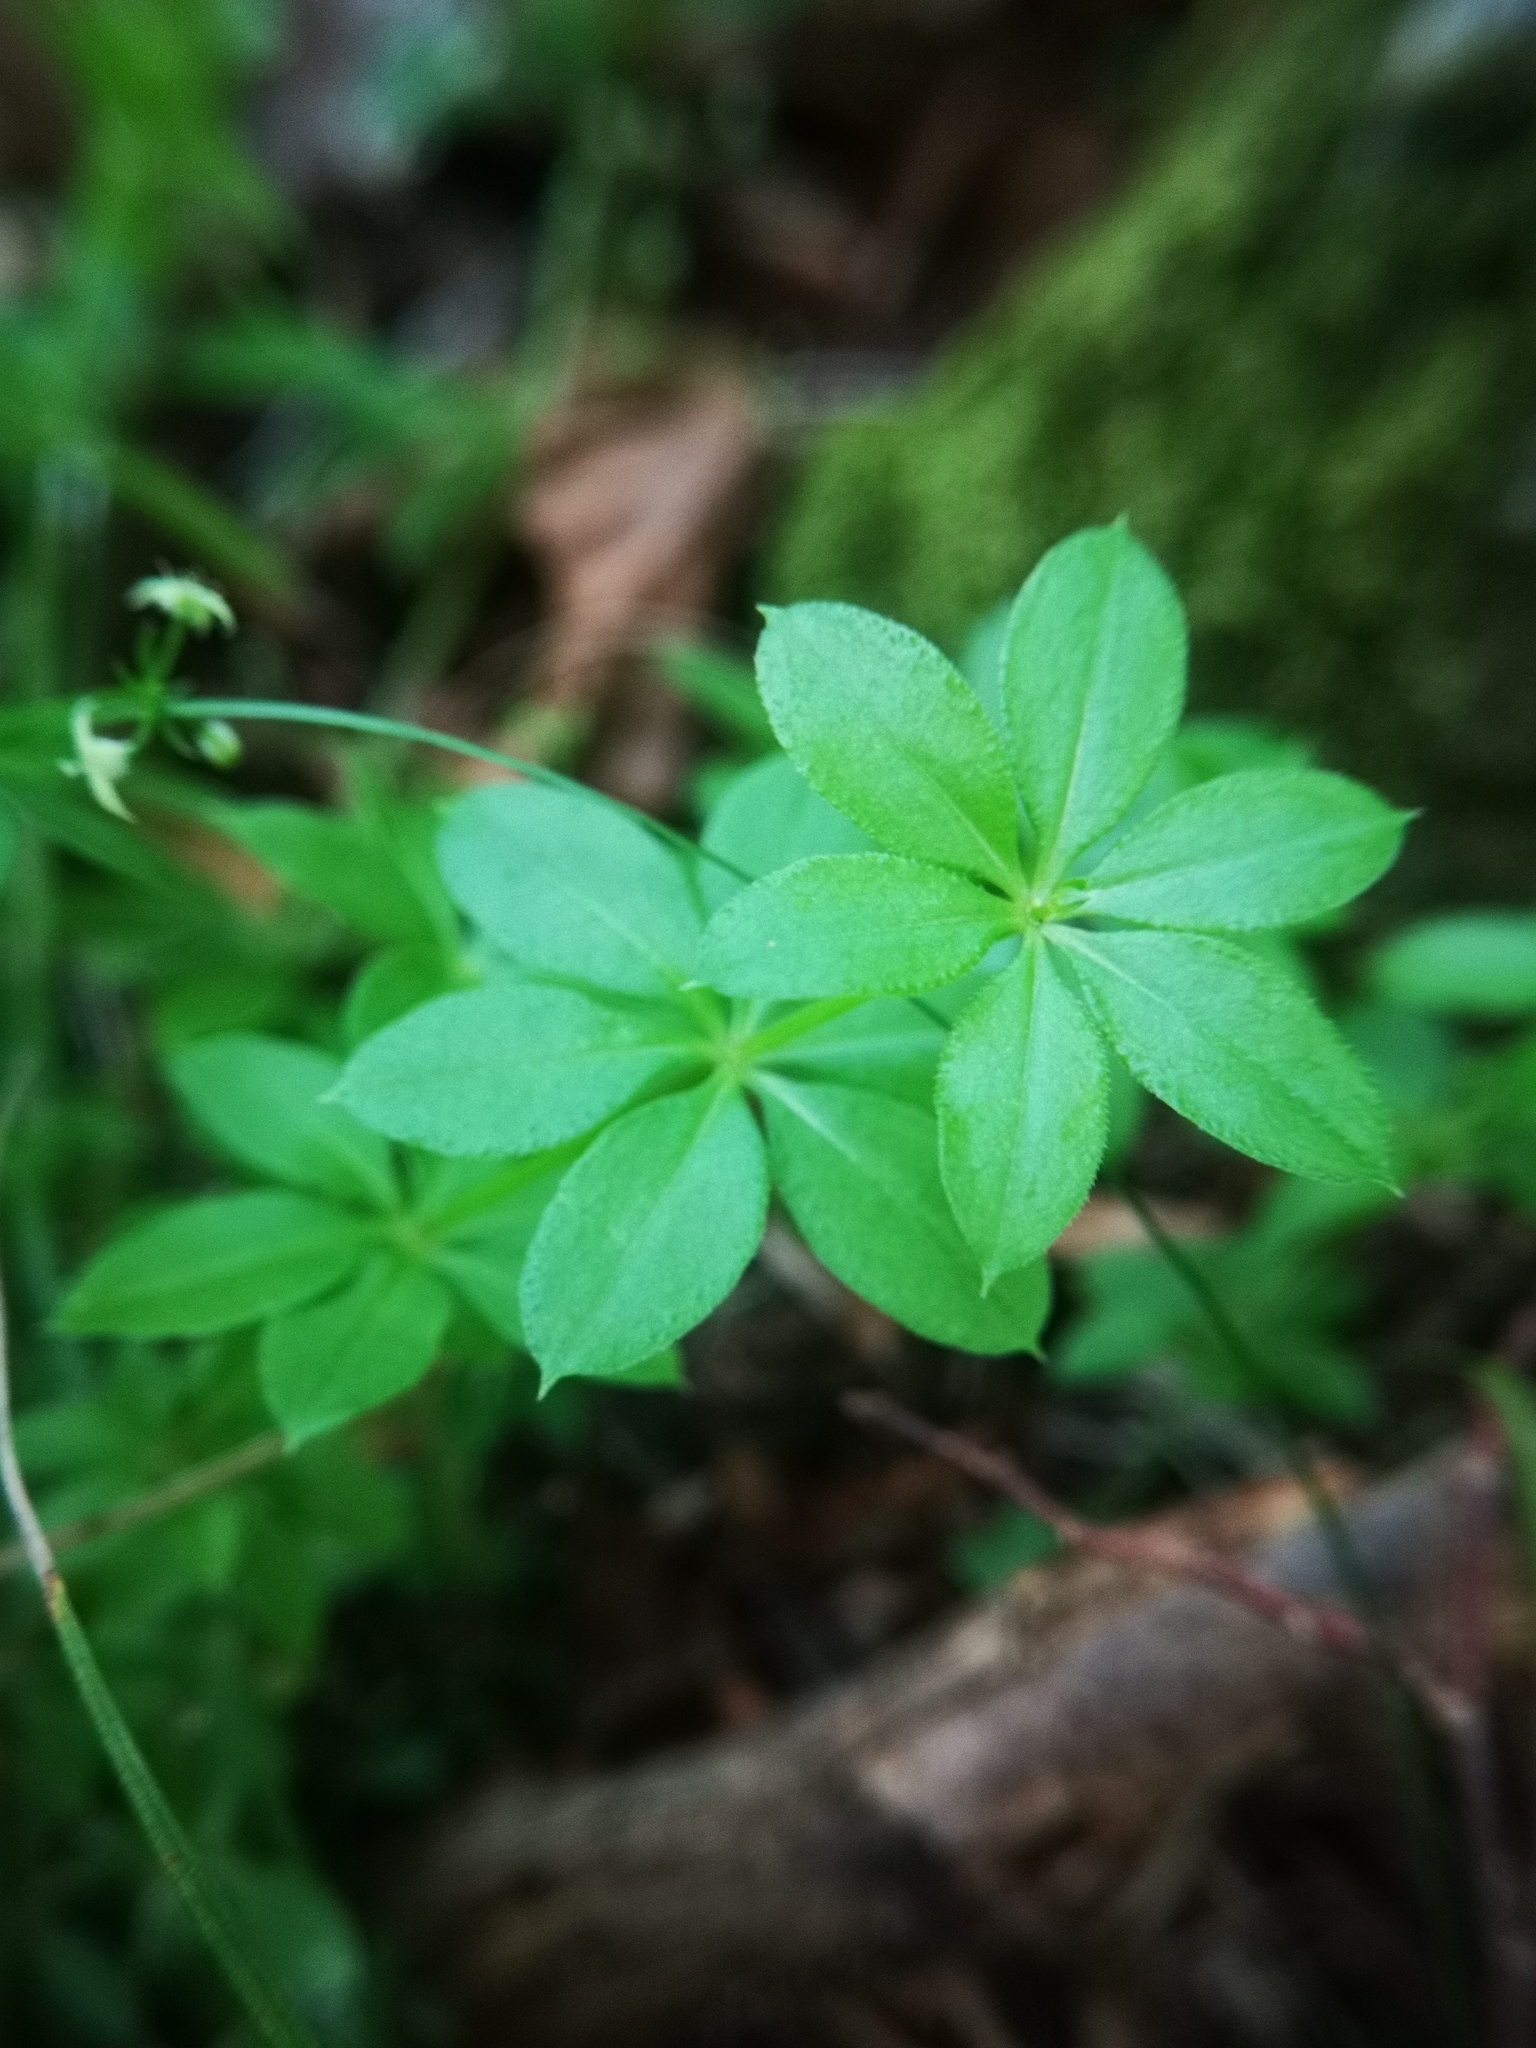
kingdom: Plantae
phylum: Tracheophyta
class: Magnoliopsida
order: Gentianales
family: Rubiaceae
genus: Galium
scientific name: Galium triflorum
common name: Fragrant bedstraw
